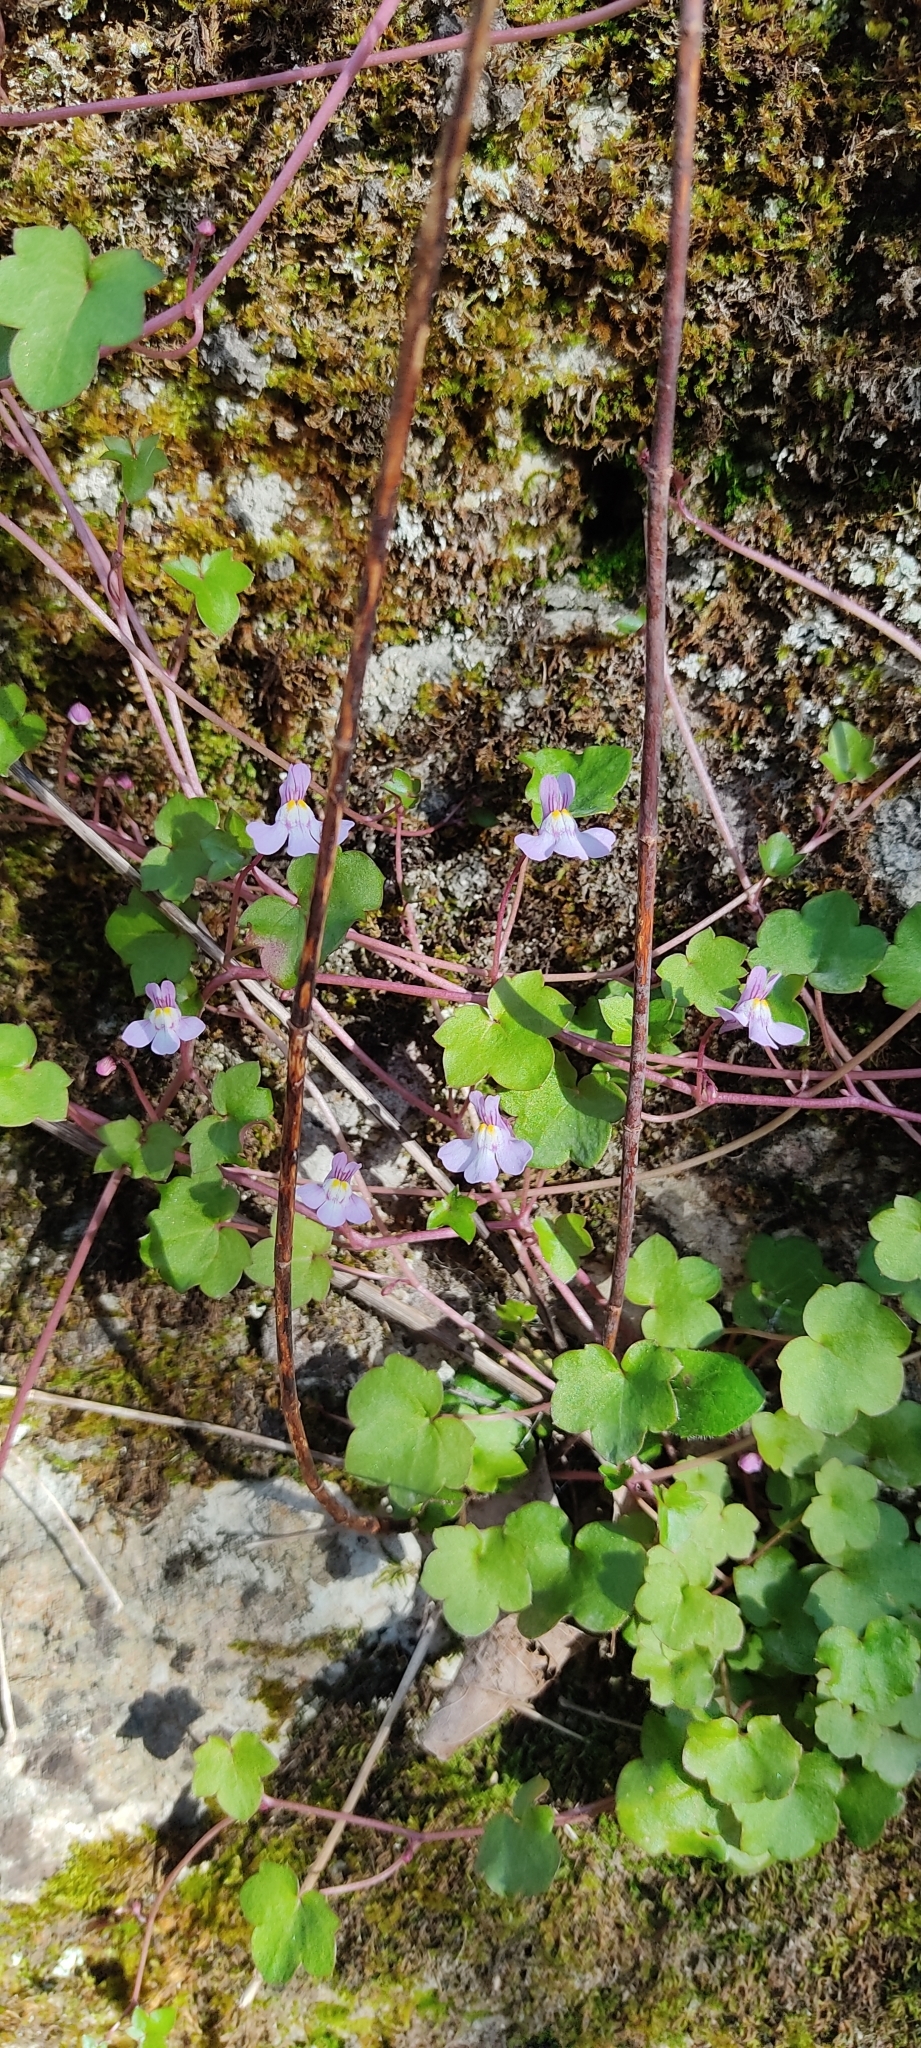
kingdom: Plantae
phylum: Tracheophyta
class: Magnoliopsida
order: Lamiales
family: Plantaginaceae
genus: Cymbalaria
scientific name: Cymbalaria muralis
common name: Ivy-leaved toadflax
